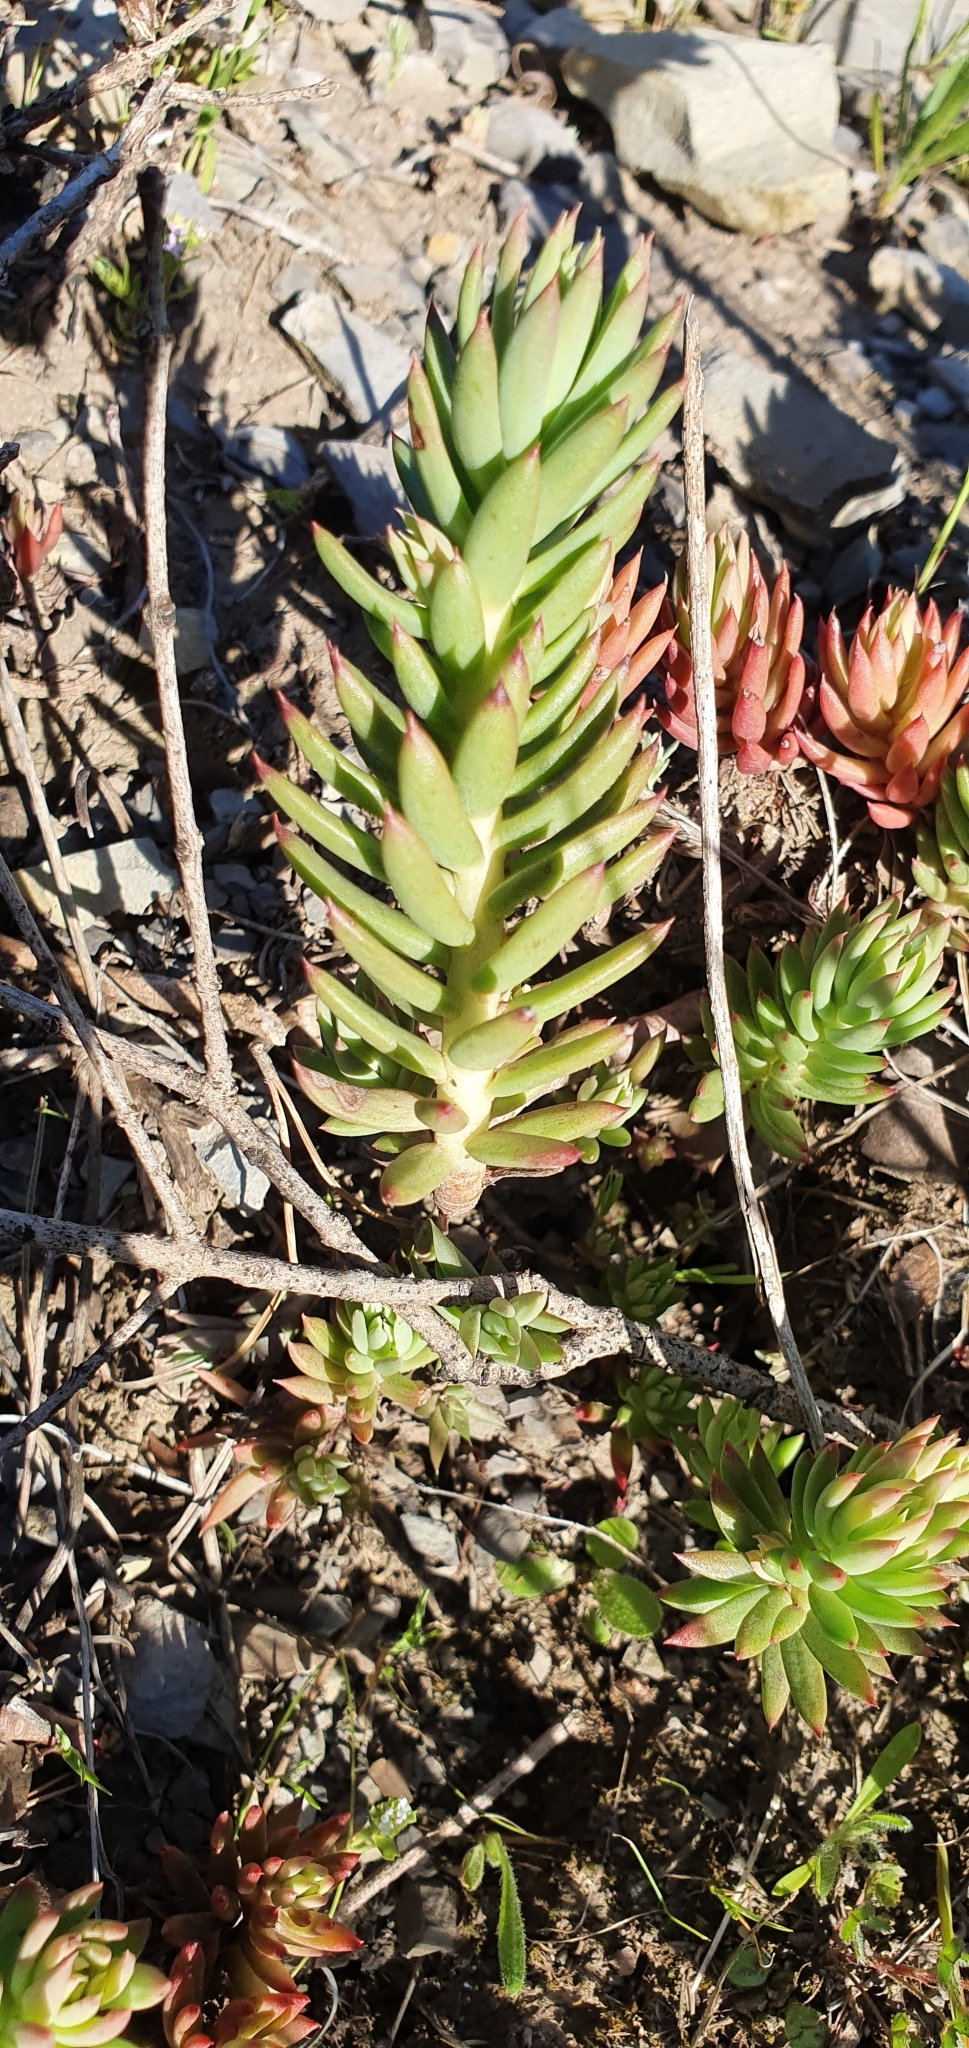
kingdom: Plantae
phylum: Tracheophyta
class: Magnoliopsida
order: Saxifragales
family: Crassulaceae
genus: Petrosedum
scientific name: Petrosedum sediforme
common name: Pale stonecrop
